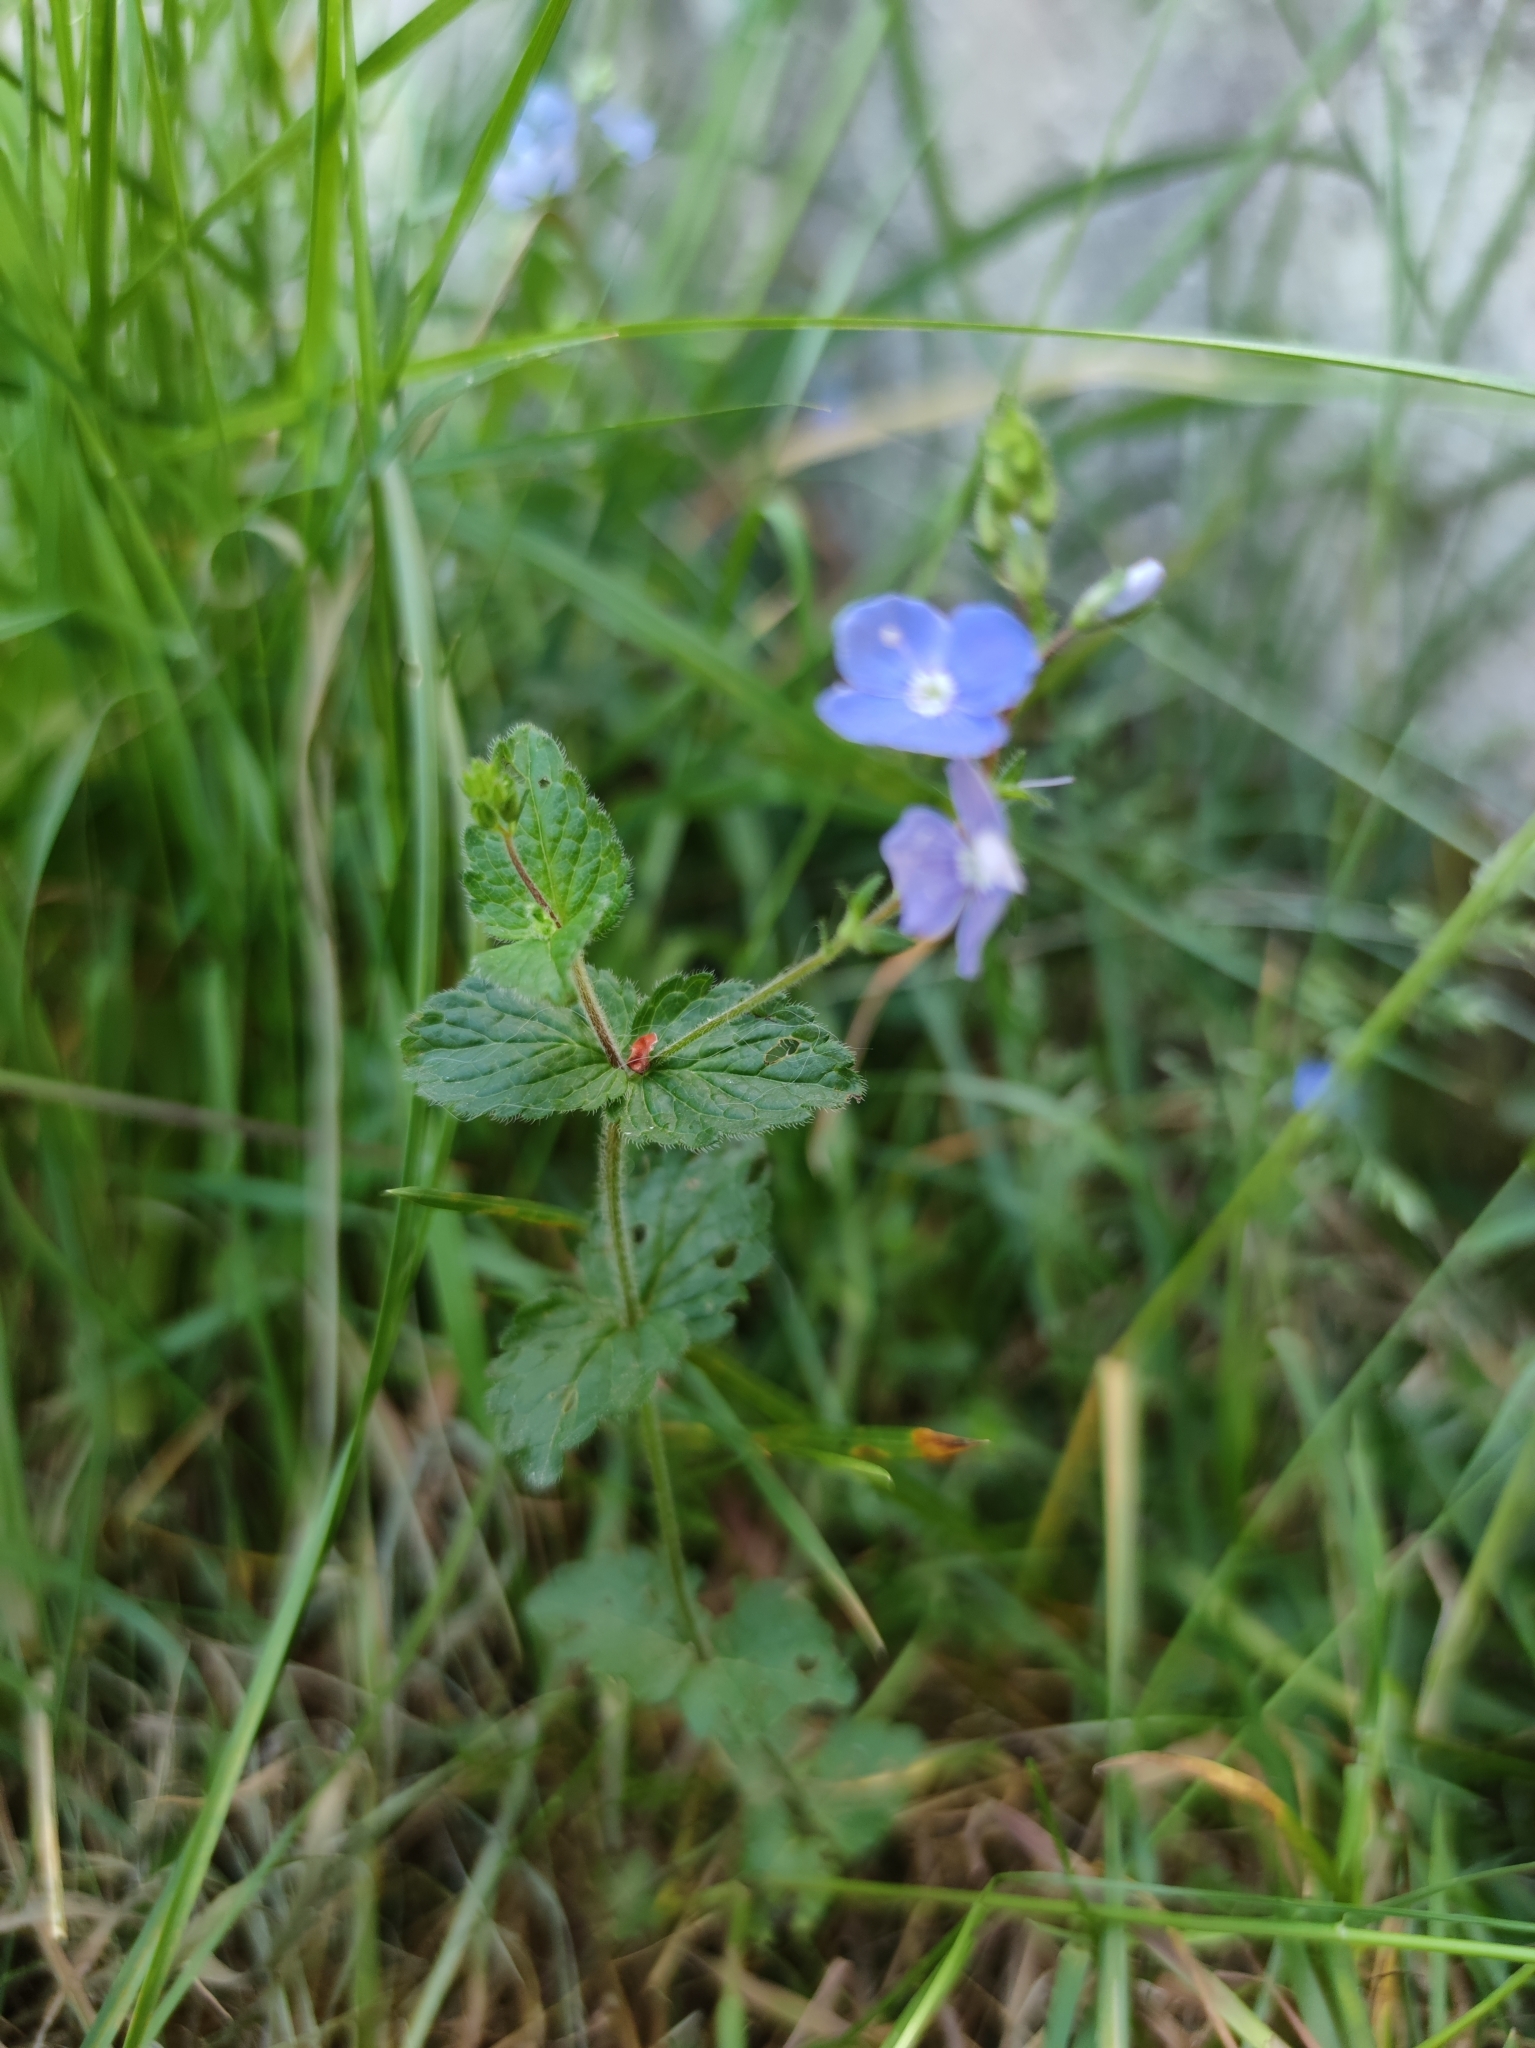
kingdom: Plantae
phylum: Tracheophyta
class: Magnoliopsida
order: Lamiales
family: Plantaginaceae
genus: Veronica
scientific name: Veronica chamaedrys
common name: Germander speedwell
